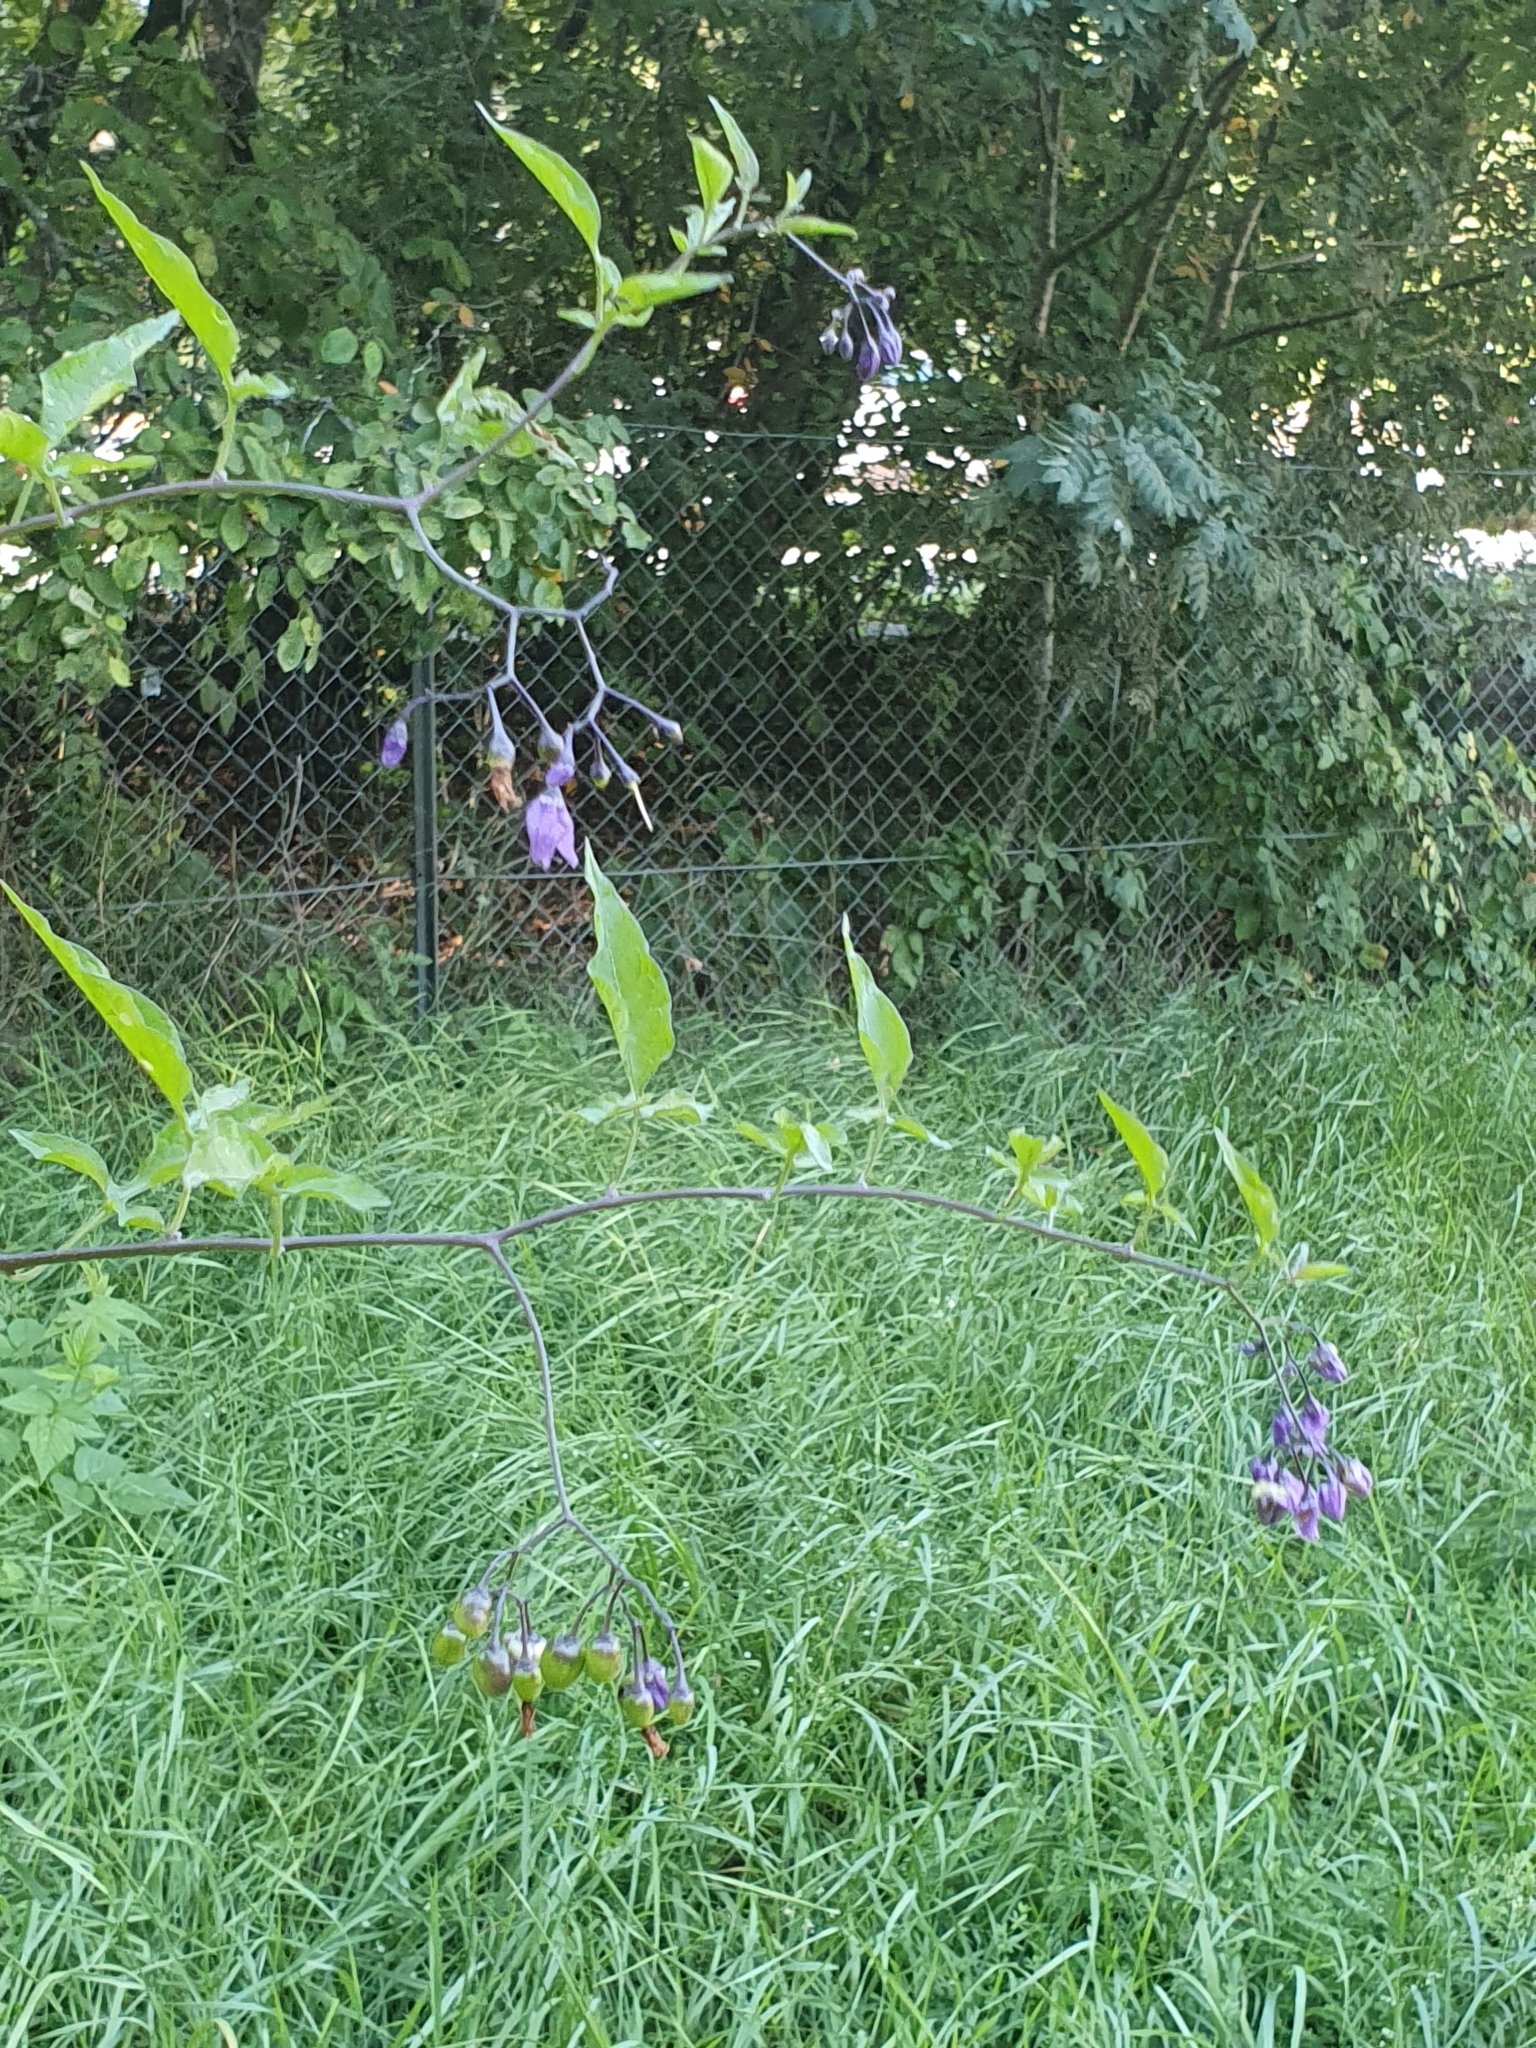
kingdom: Plantae
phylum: Tracheophyta
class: Magnoliopsida
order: Solanales
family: Solanaceae
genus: Solanum
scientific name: Solanum dulcamara
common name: Climbing nightshade
